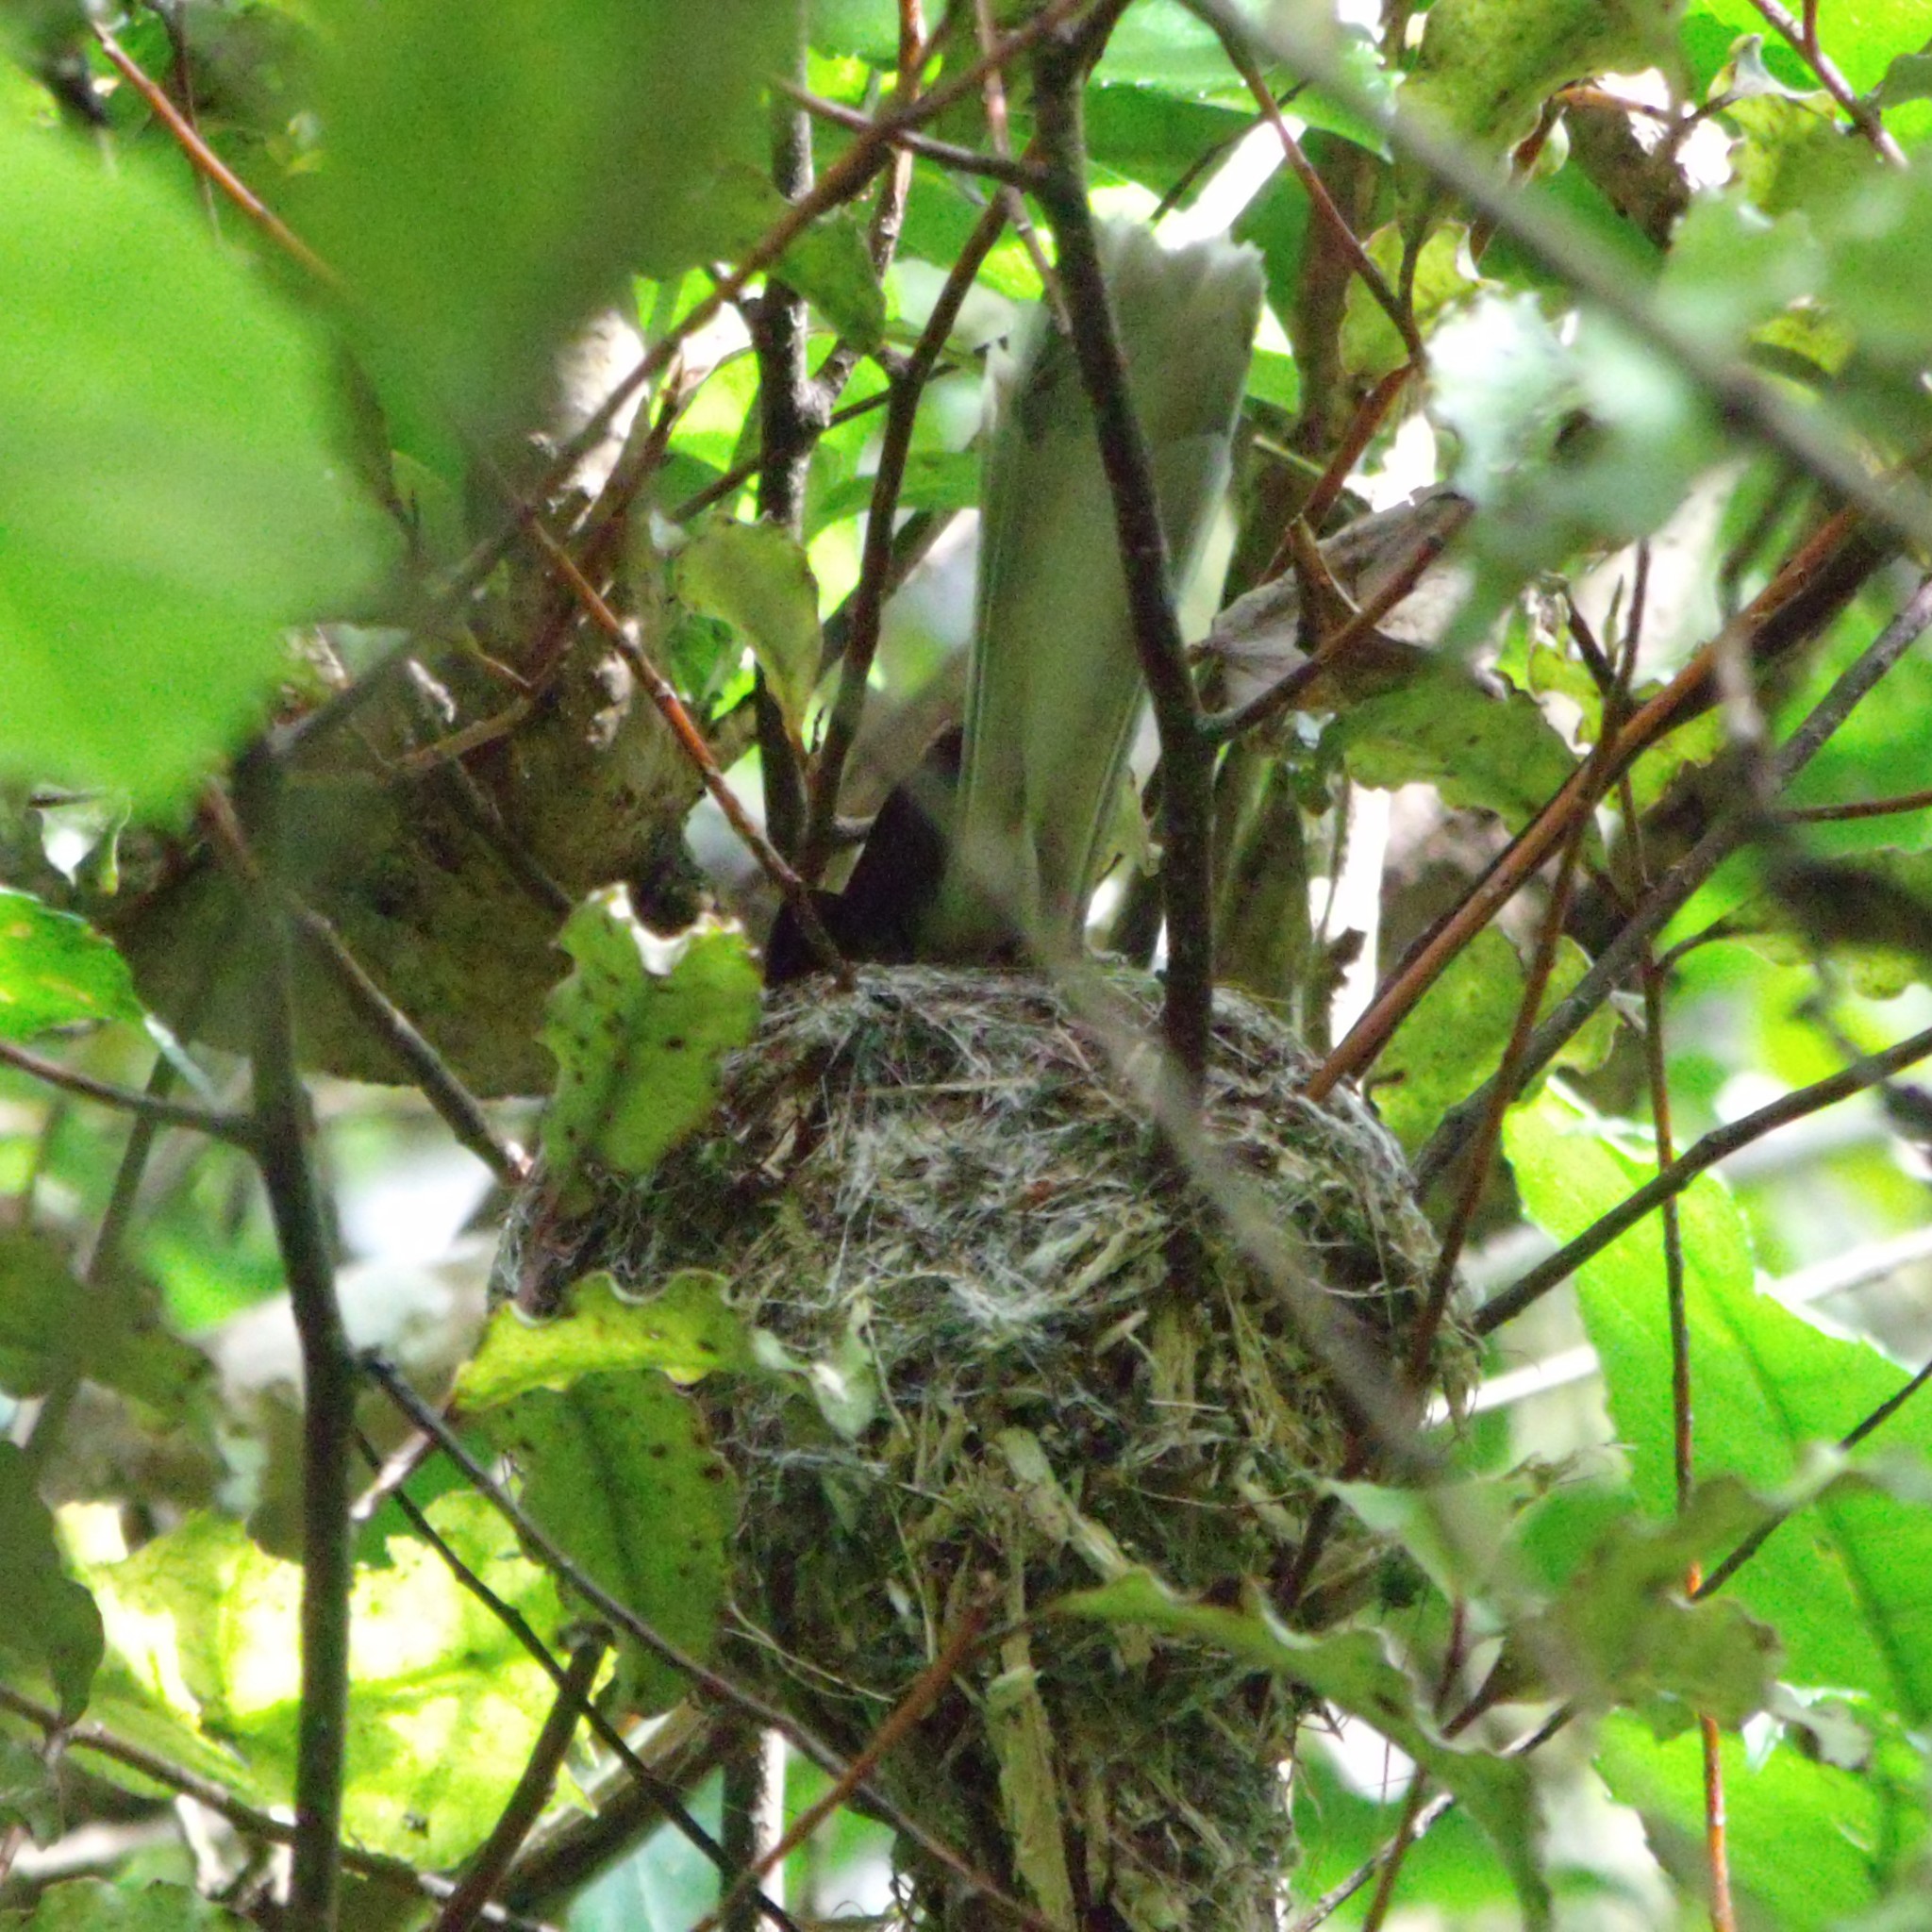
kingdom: Animalia
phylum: Chordata
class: Aves
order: Passeriformes
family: Rhipiduridae
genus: Rhipidura
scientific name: Rhipidura fuliginosa
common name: New zealand fantail
